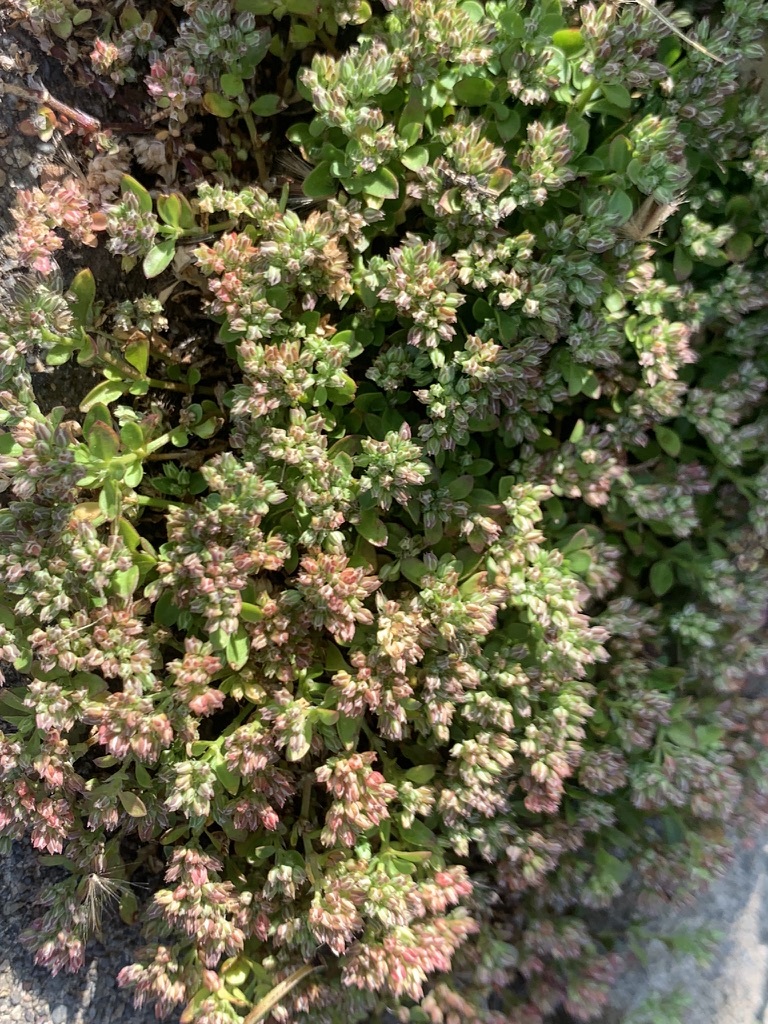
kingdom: Plantae
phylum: Tracheophyta
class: Magnoliopsida
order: Caryophyllales
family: Caryophyllaceae
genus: Polycarpon
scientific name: Polycarpon tetraphyllum
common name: Four-leaved all-seed
